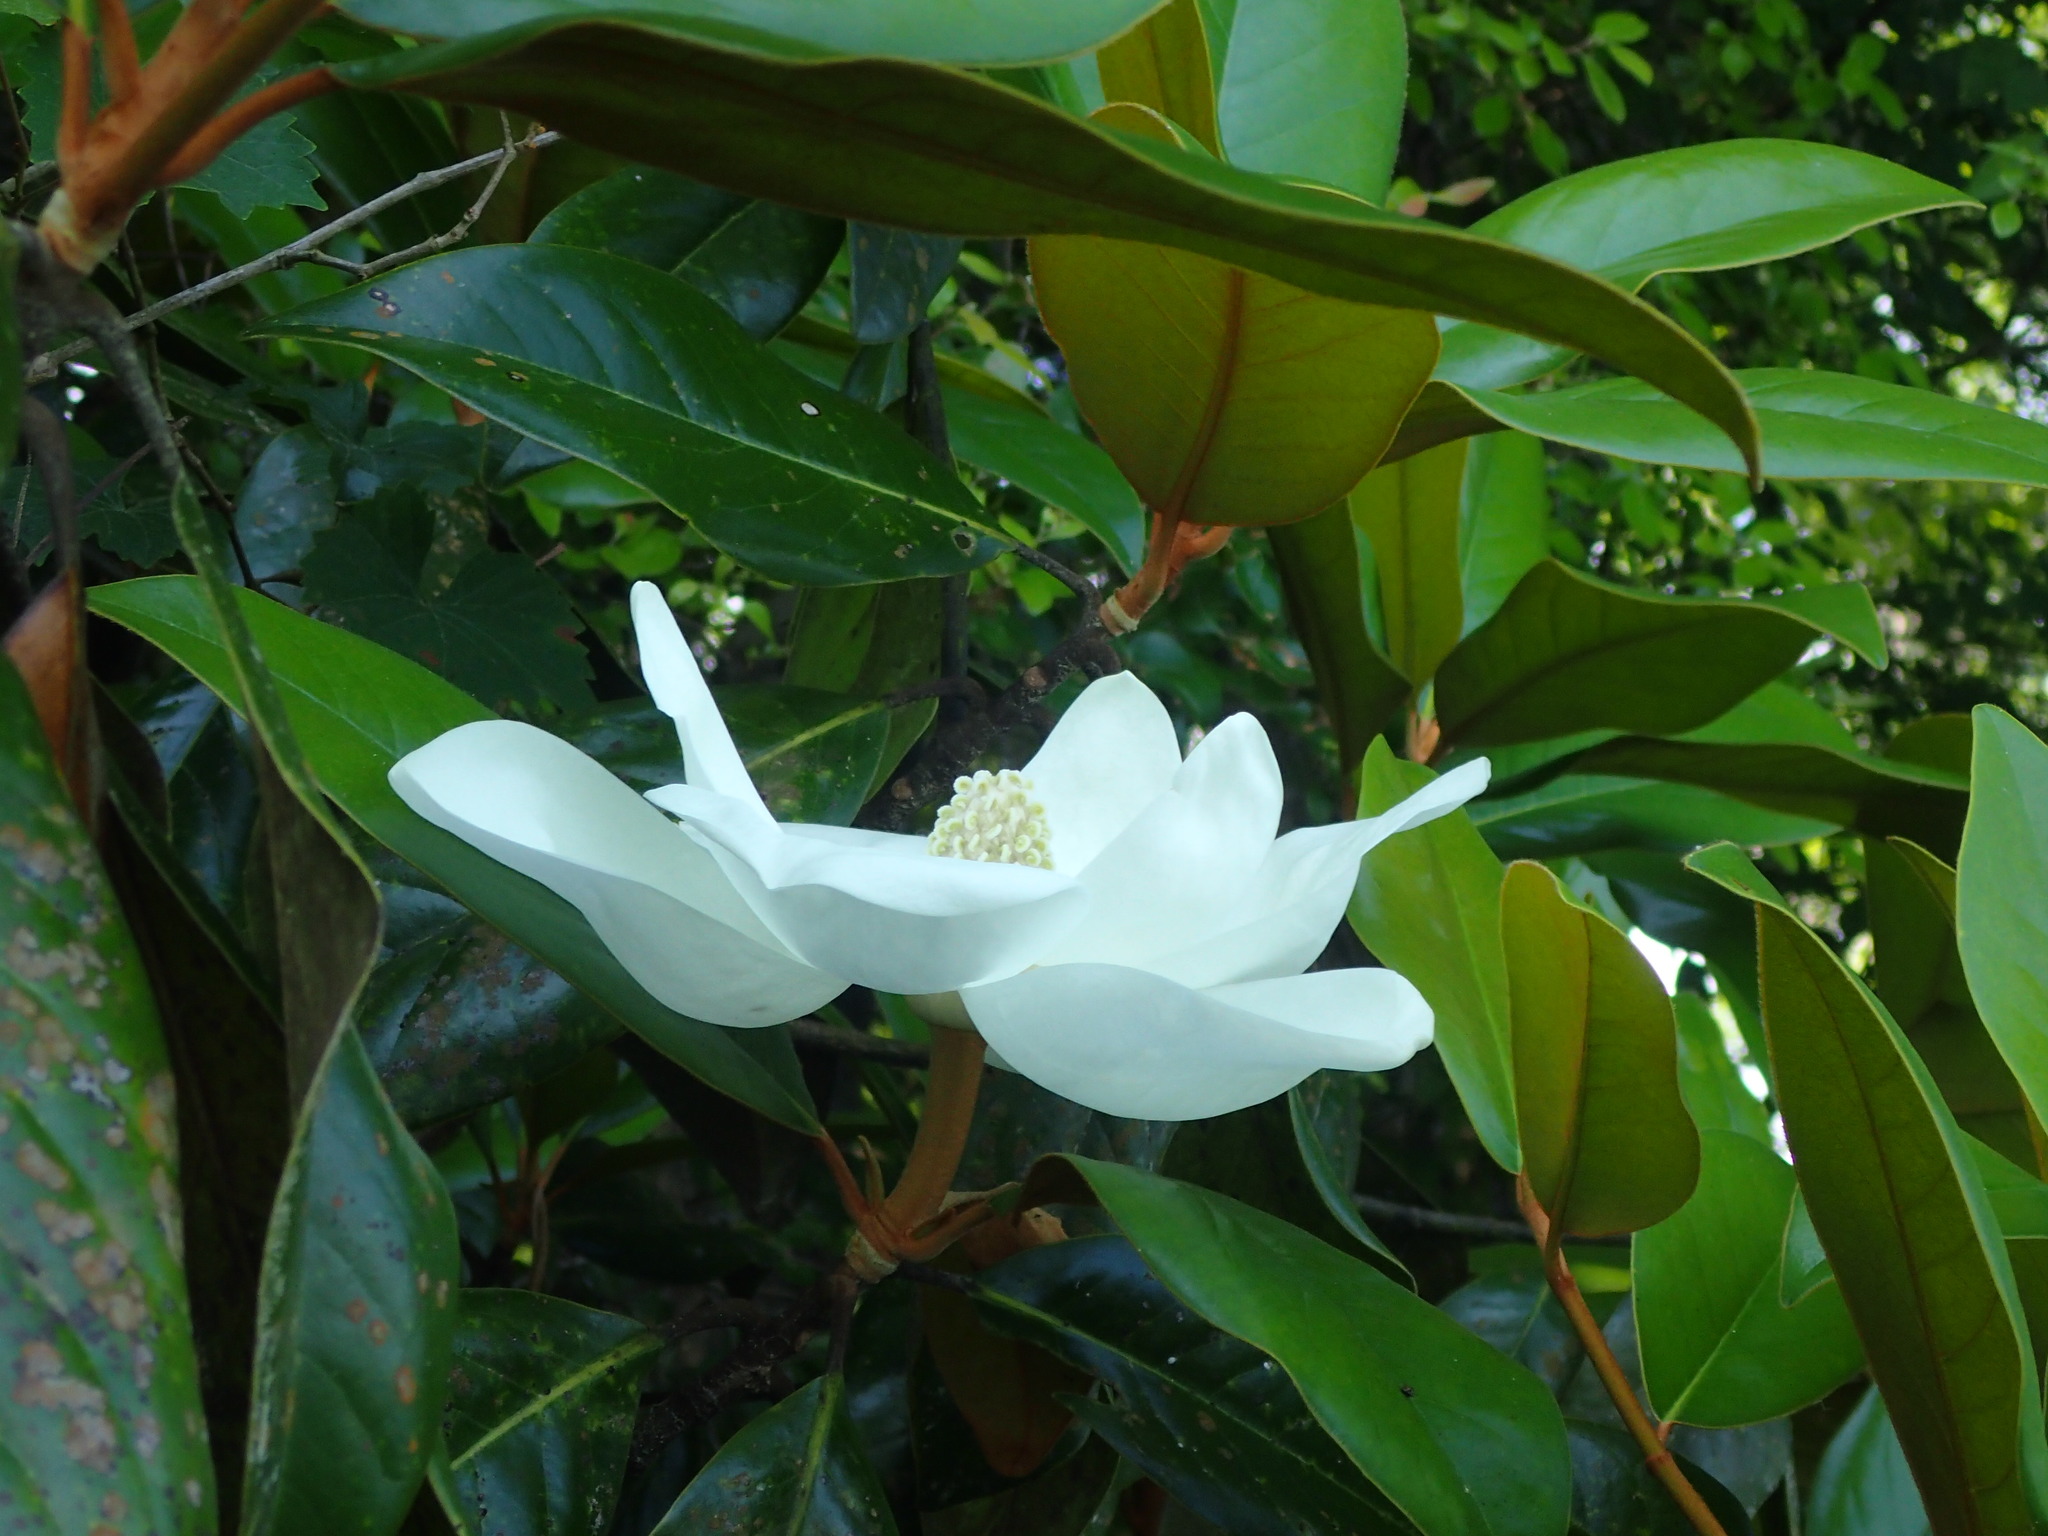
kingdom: Plantae
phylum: Tracheophyta
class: Magnoliopsida
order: Magnoliales
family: Magnoliaceae
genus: Magnolia
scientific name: Magnolia grandiflora
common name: Southern magnolia
